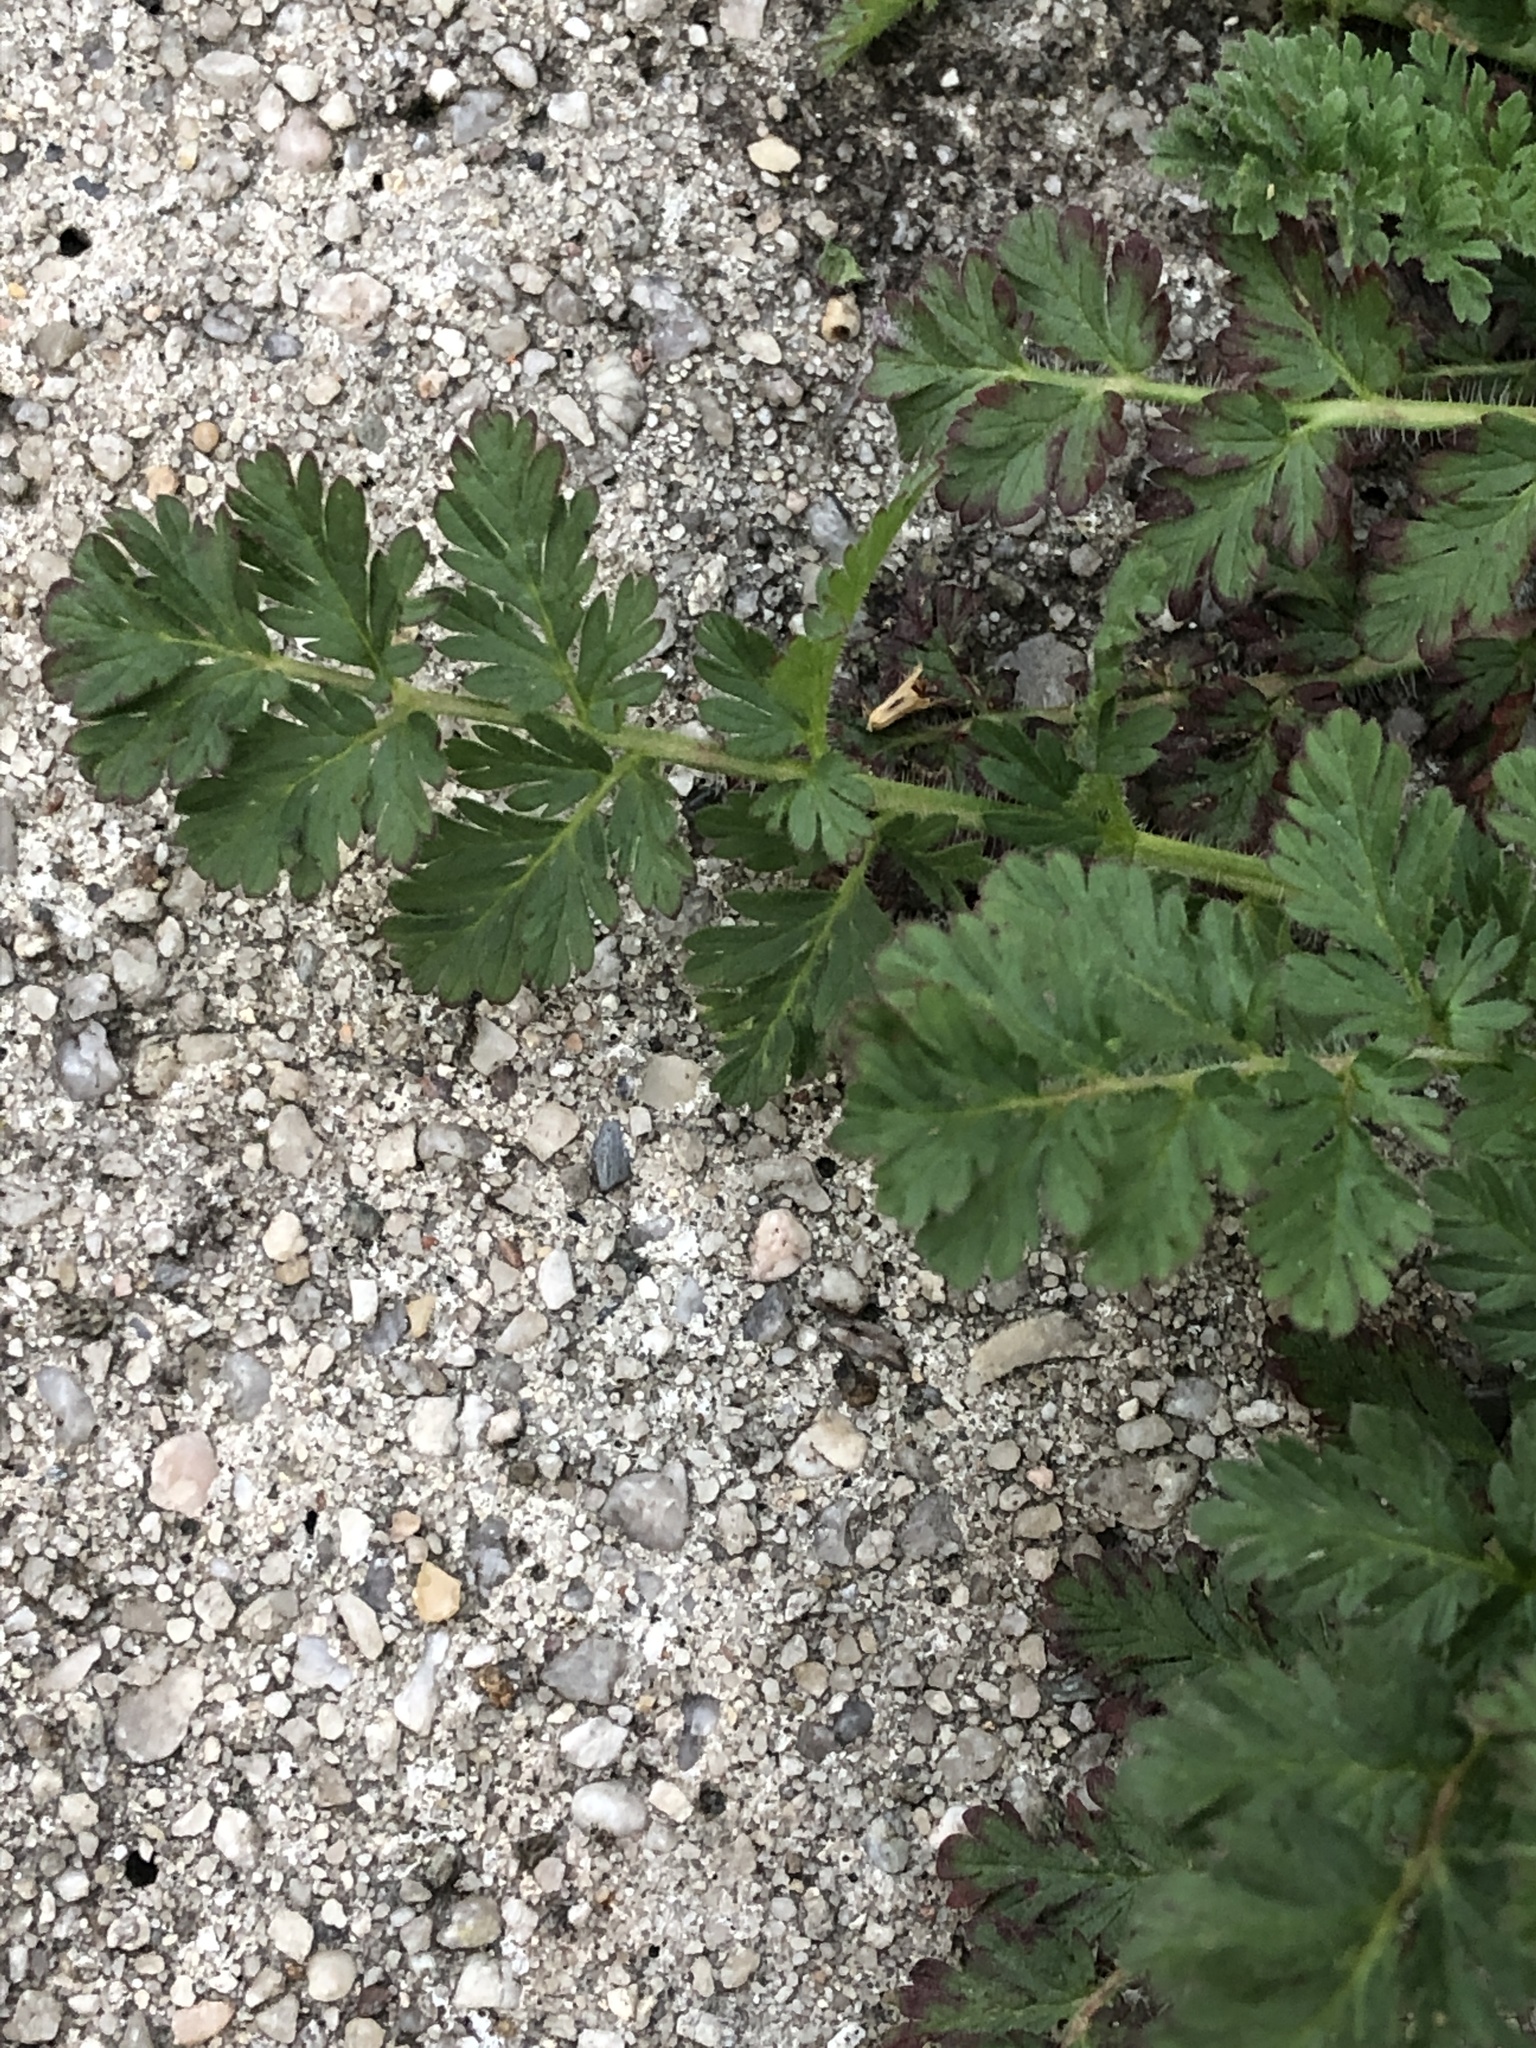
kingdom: Plantae
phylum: Tracheophyta
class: Magnoliopsida
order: Geraniales
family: Geraniaceae
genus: Erodium
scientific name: Erodium cicutarium
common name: Common stork's-bill
